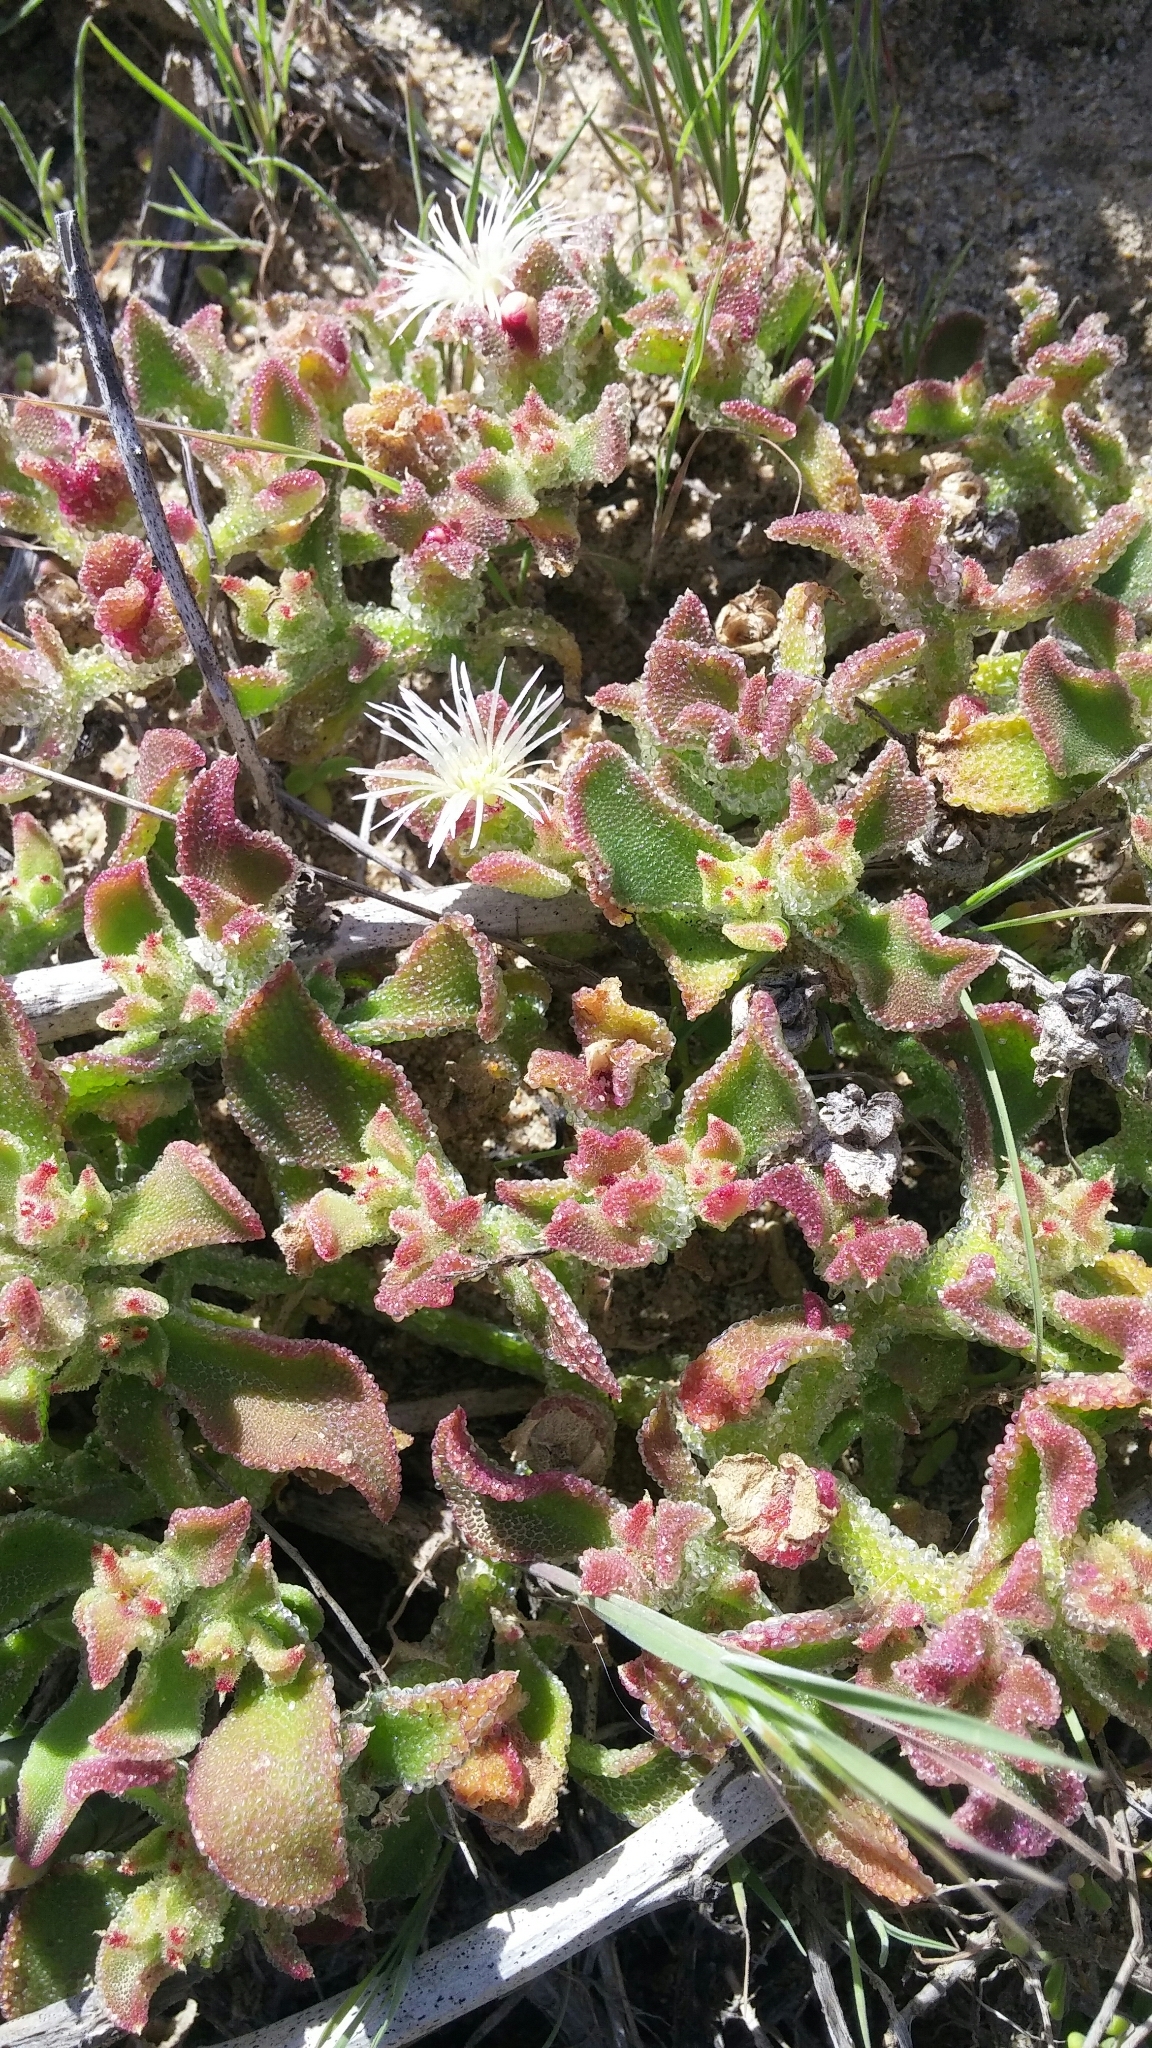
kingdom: Plantae
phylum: Tracheophyta
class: Magnoliopsida
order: Caryophyllales
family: Aizoaceae
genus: Mesembryanthemum
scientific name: Mesembryanthemum crystallinum
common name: Common iceplant
